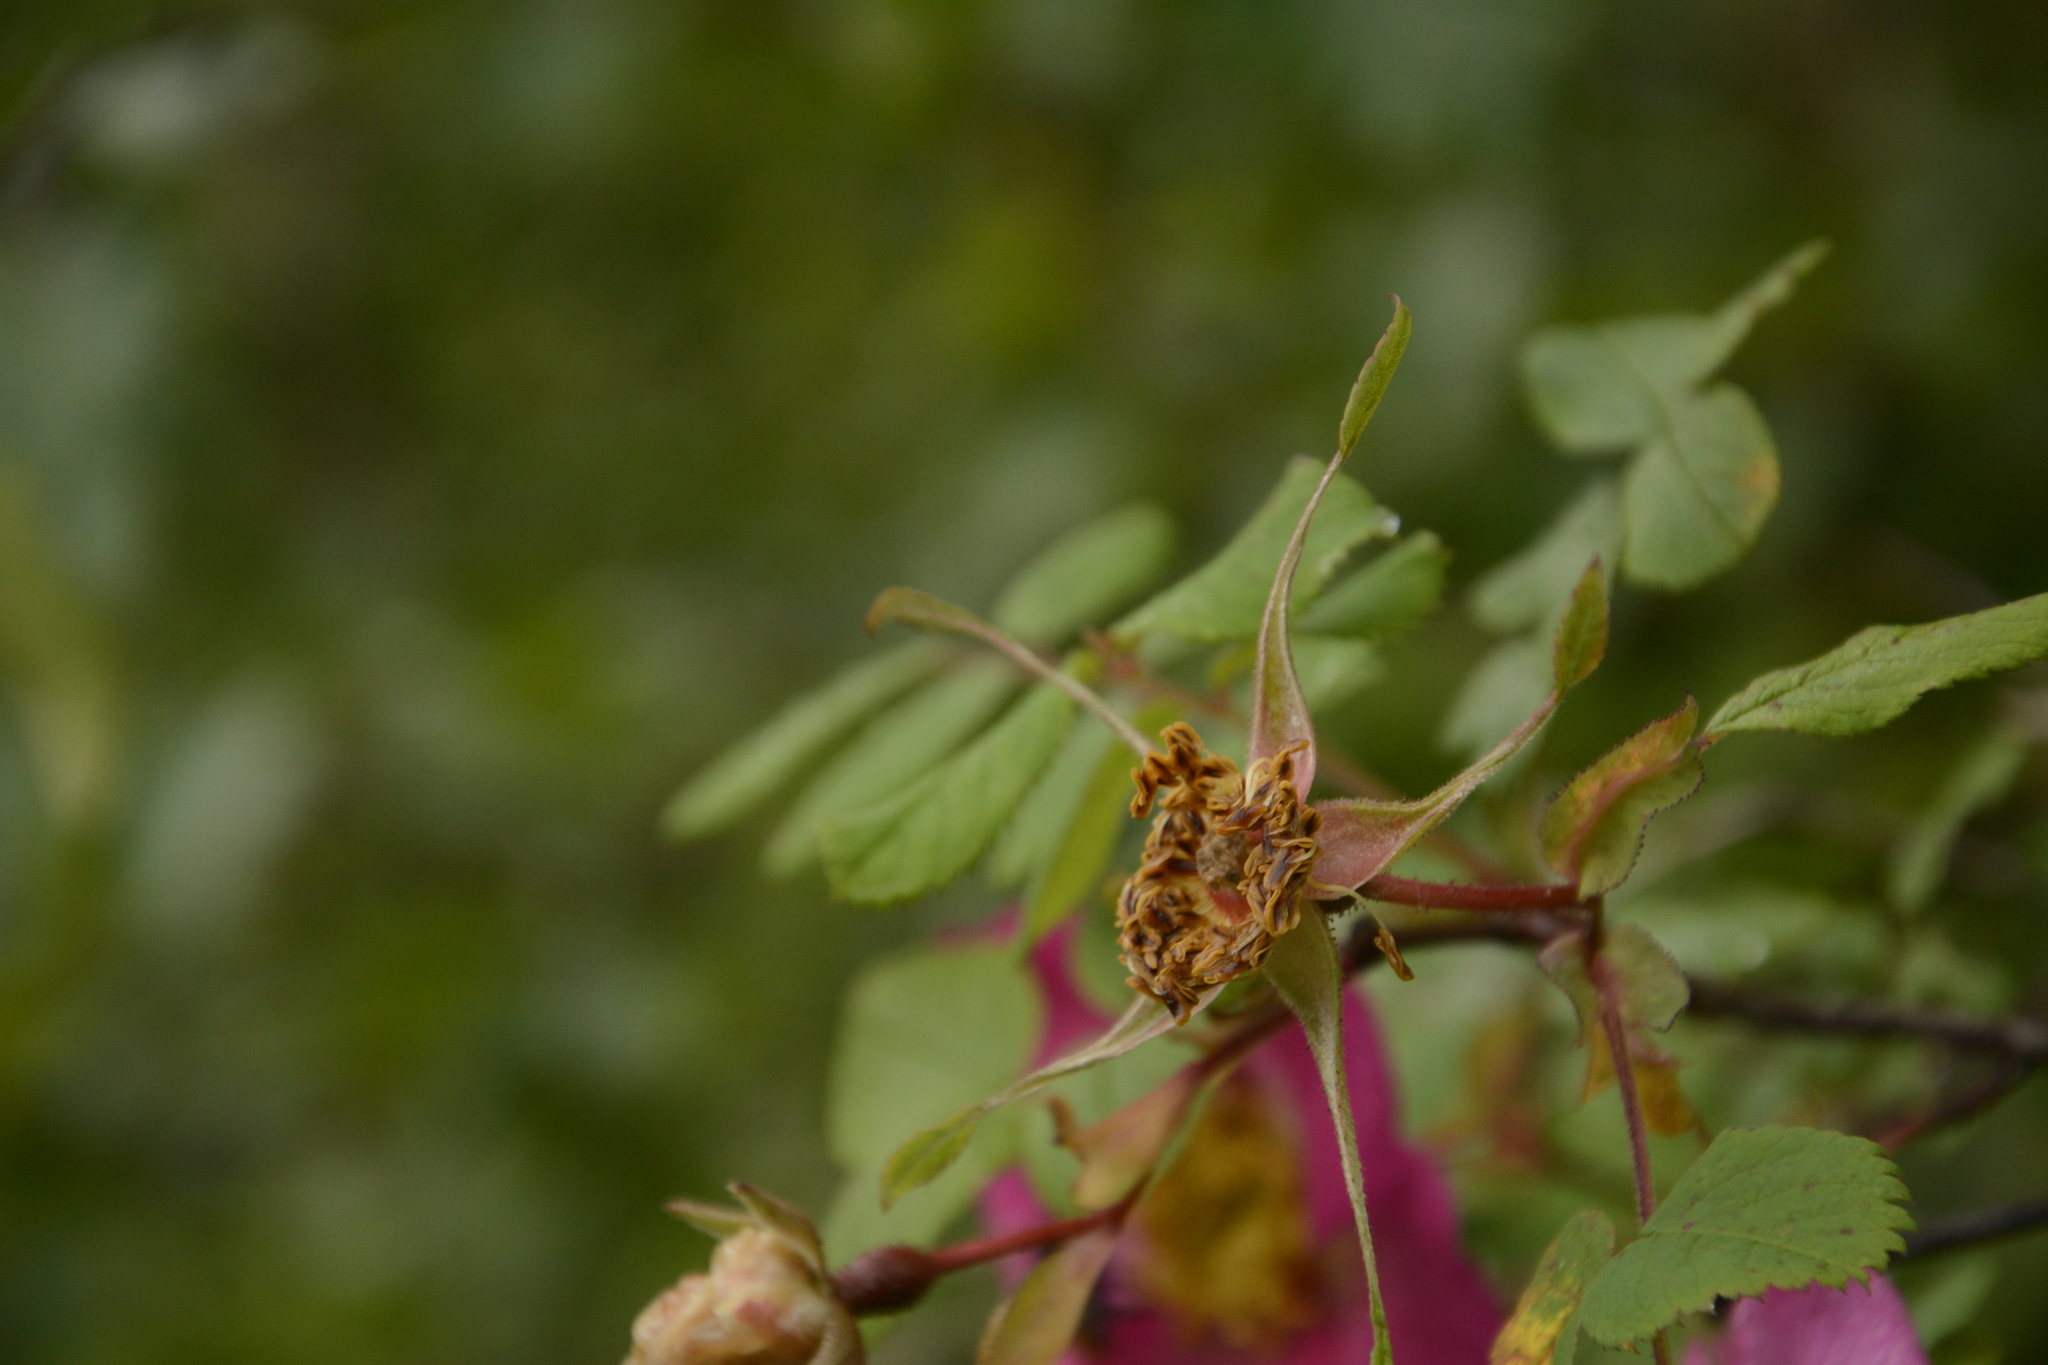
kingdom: Plantae
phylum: Tracheophyta
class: Magnoliopsida
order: Rosales
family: Rosaceae
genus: Rosa
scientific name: Rosa macrophylla
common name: Big-hip rose
